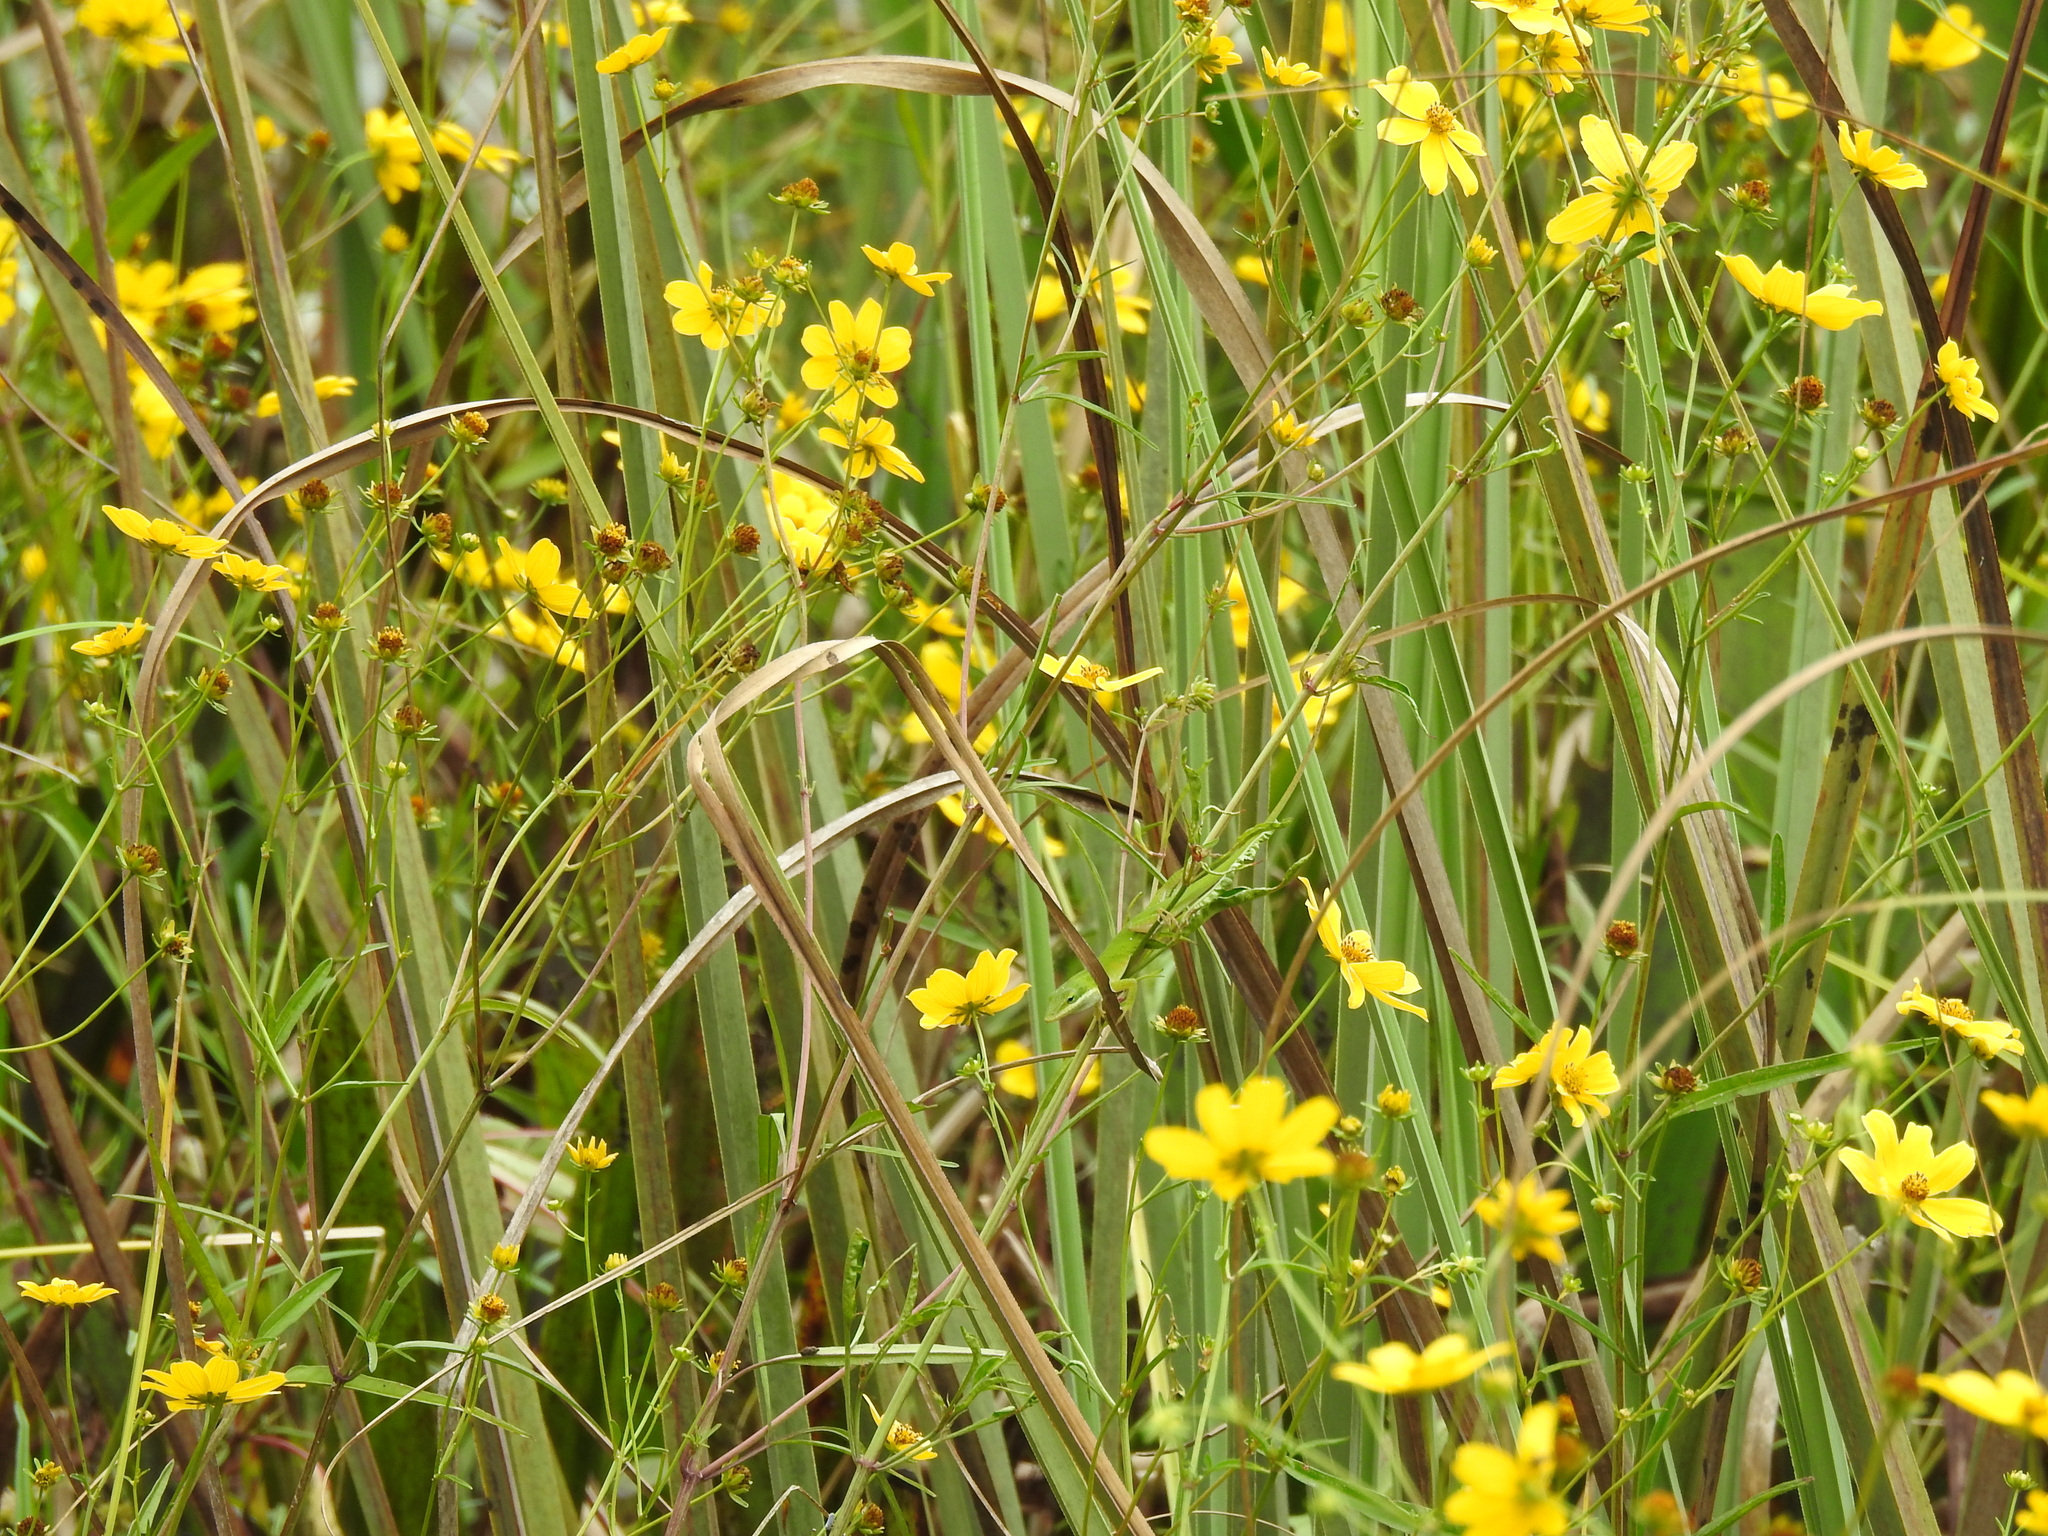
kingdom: Plantae
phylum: Tracheophyta
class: Magnoliopsida
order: Asterales
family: Asteraceae
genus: Bidens
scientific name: Bidens mitis
